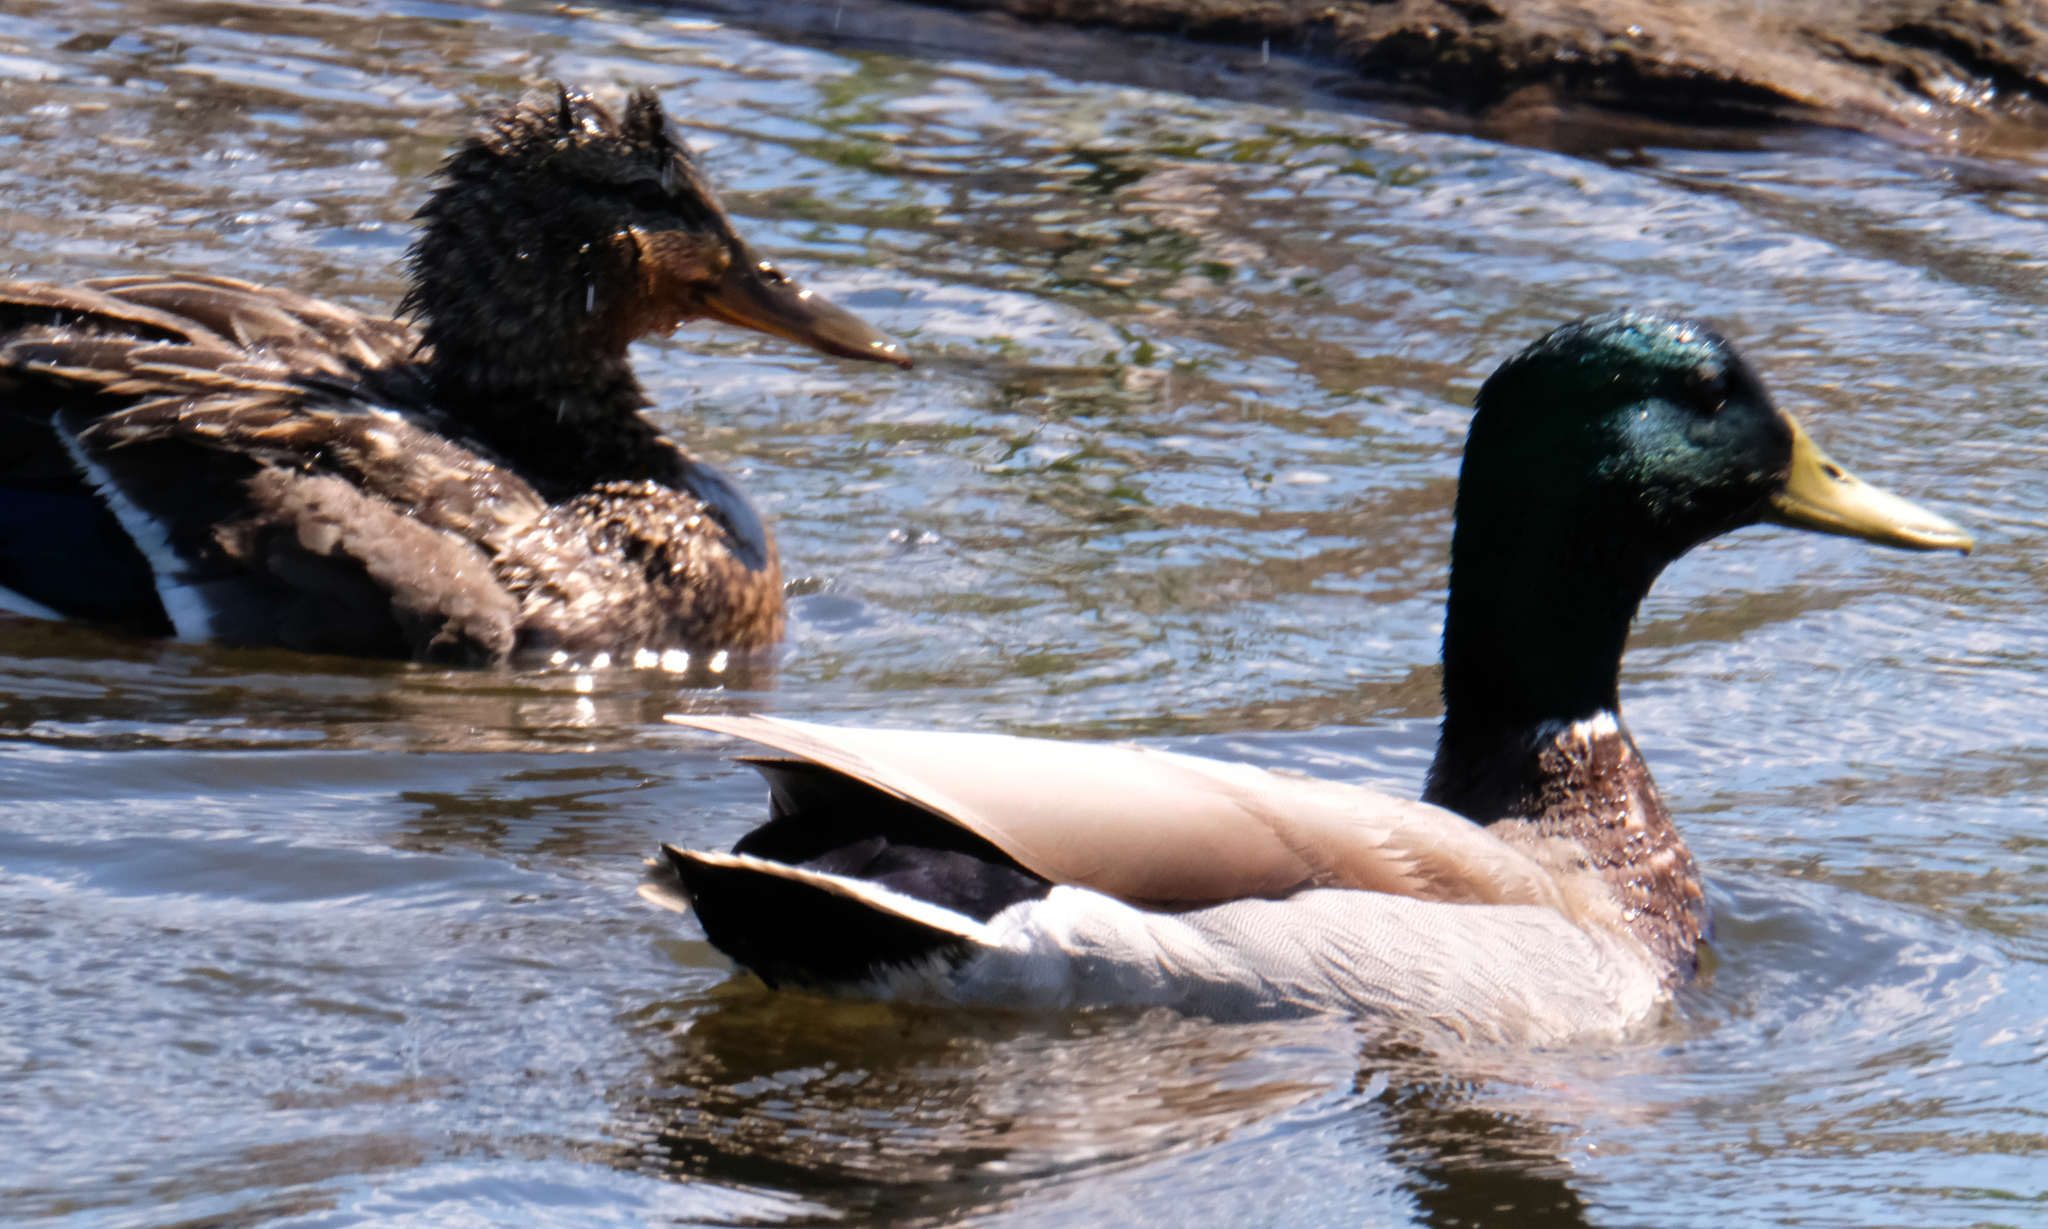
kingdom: Animalia
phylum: Chordata
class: Aves
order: Anseriformes
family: Anatidae
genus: Anas
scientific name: Anas platyrhynchos
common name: Mallard
